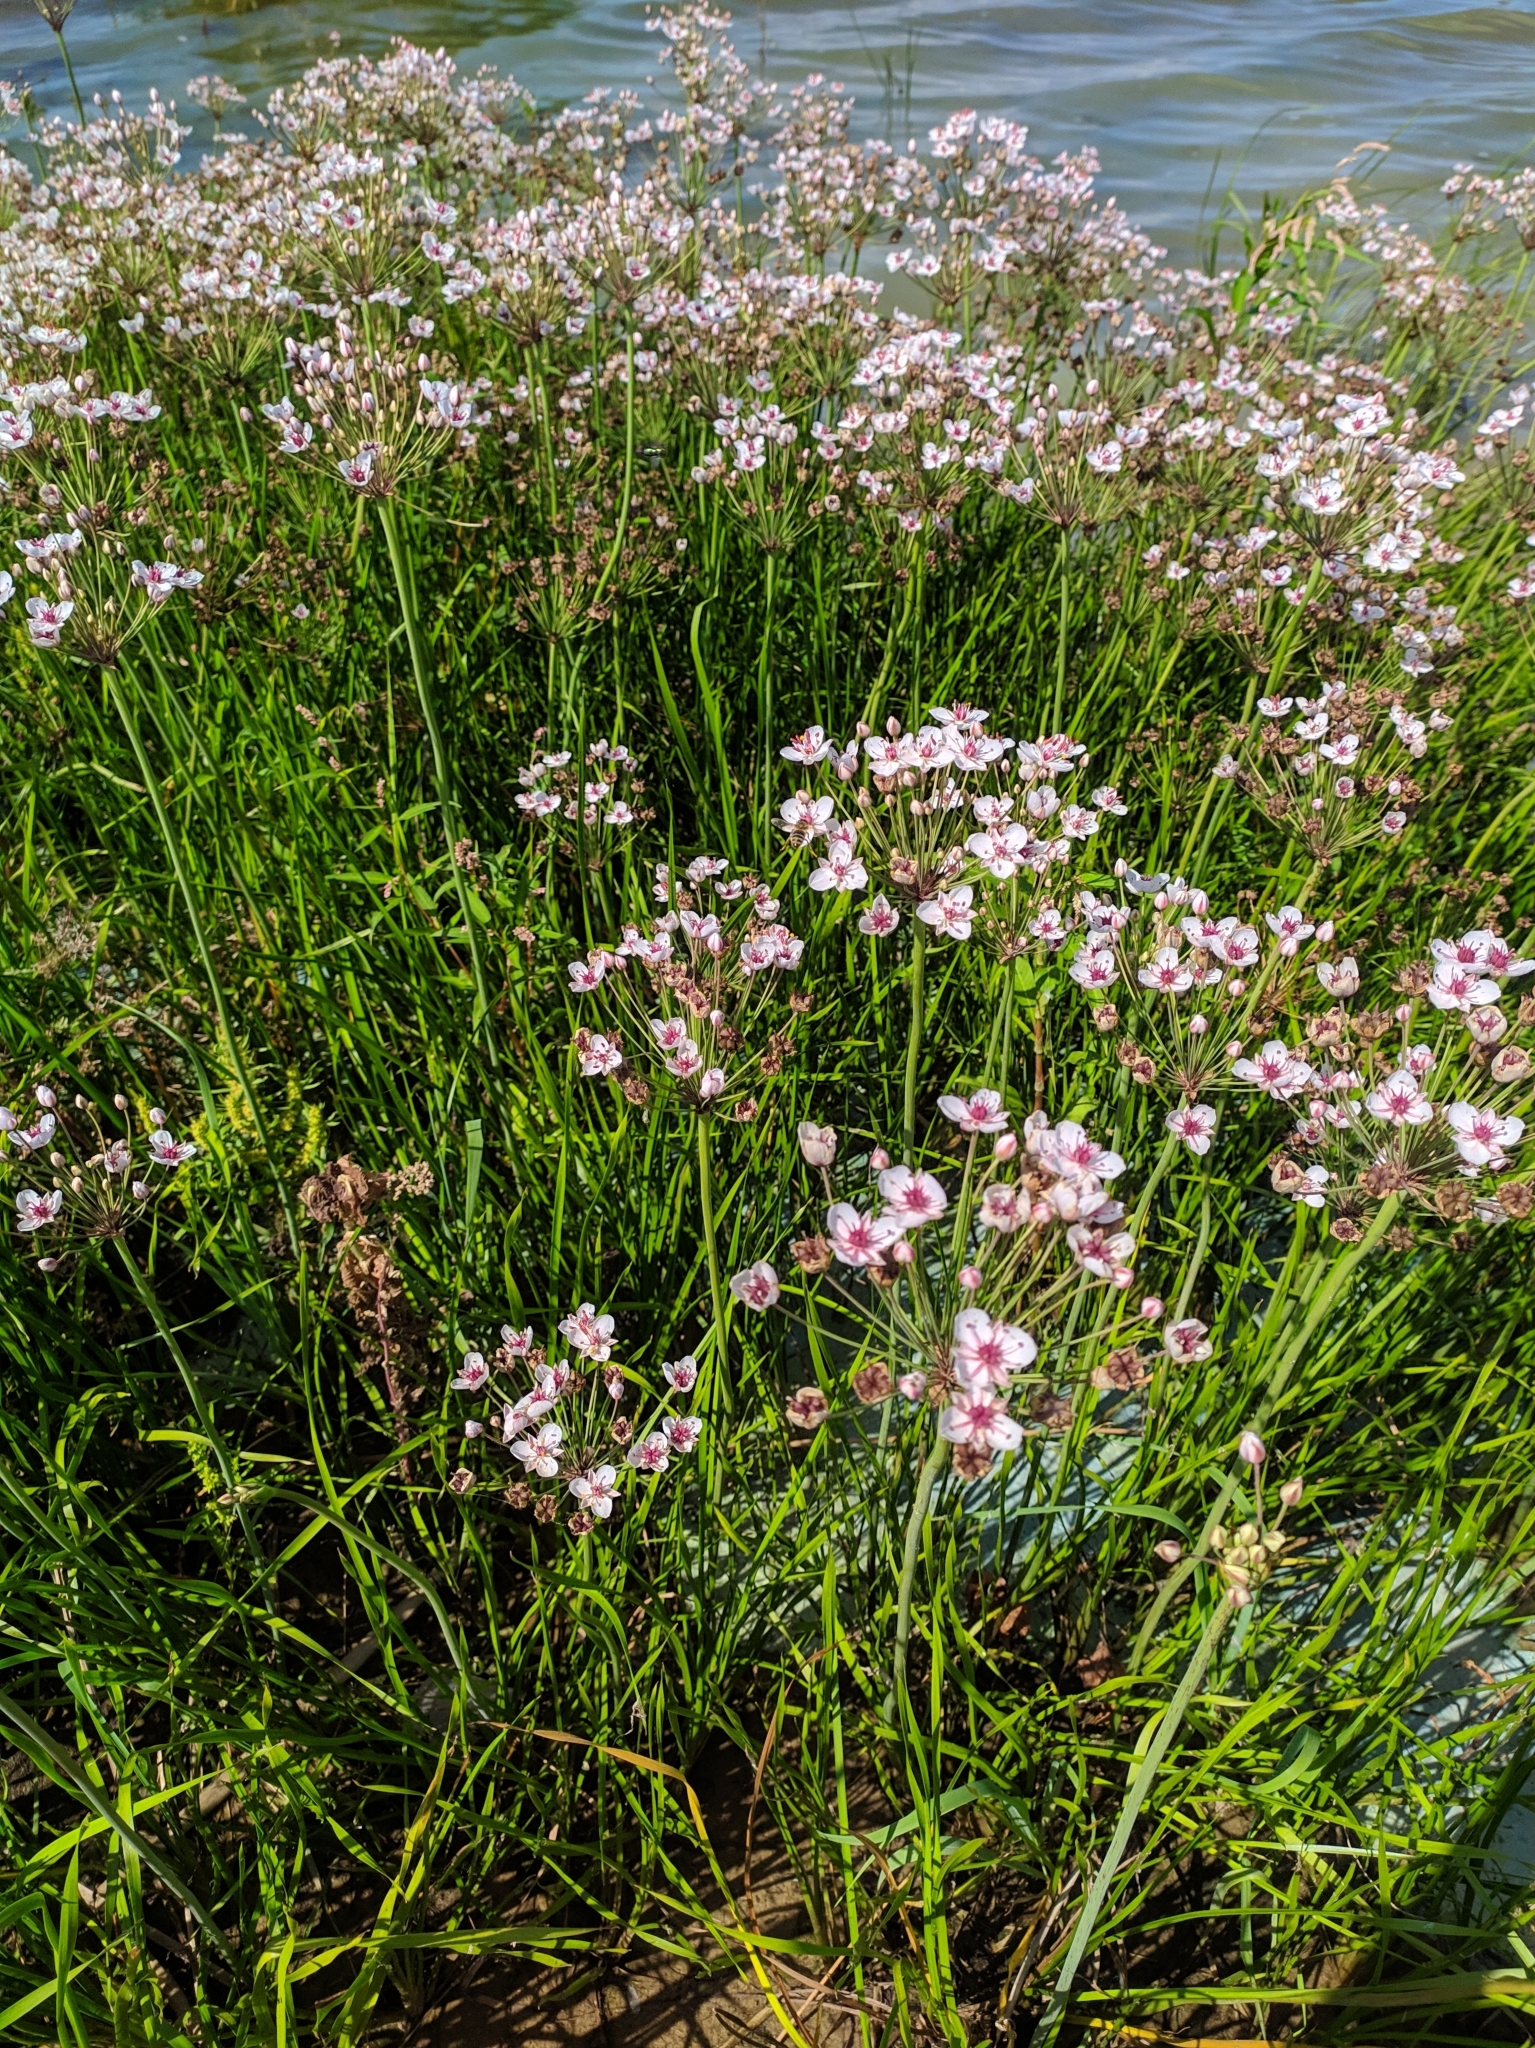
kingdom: Plantae
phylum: Tracheophyta
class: Liliopsida
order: Alismatales
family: Butomaceae
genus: Butomus
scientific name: Butomus umbellatus
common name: Flowering-rush
